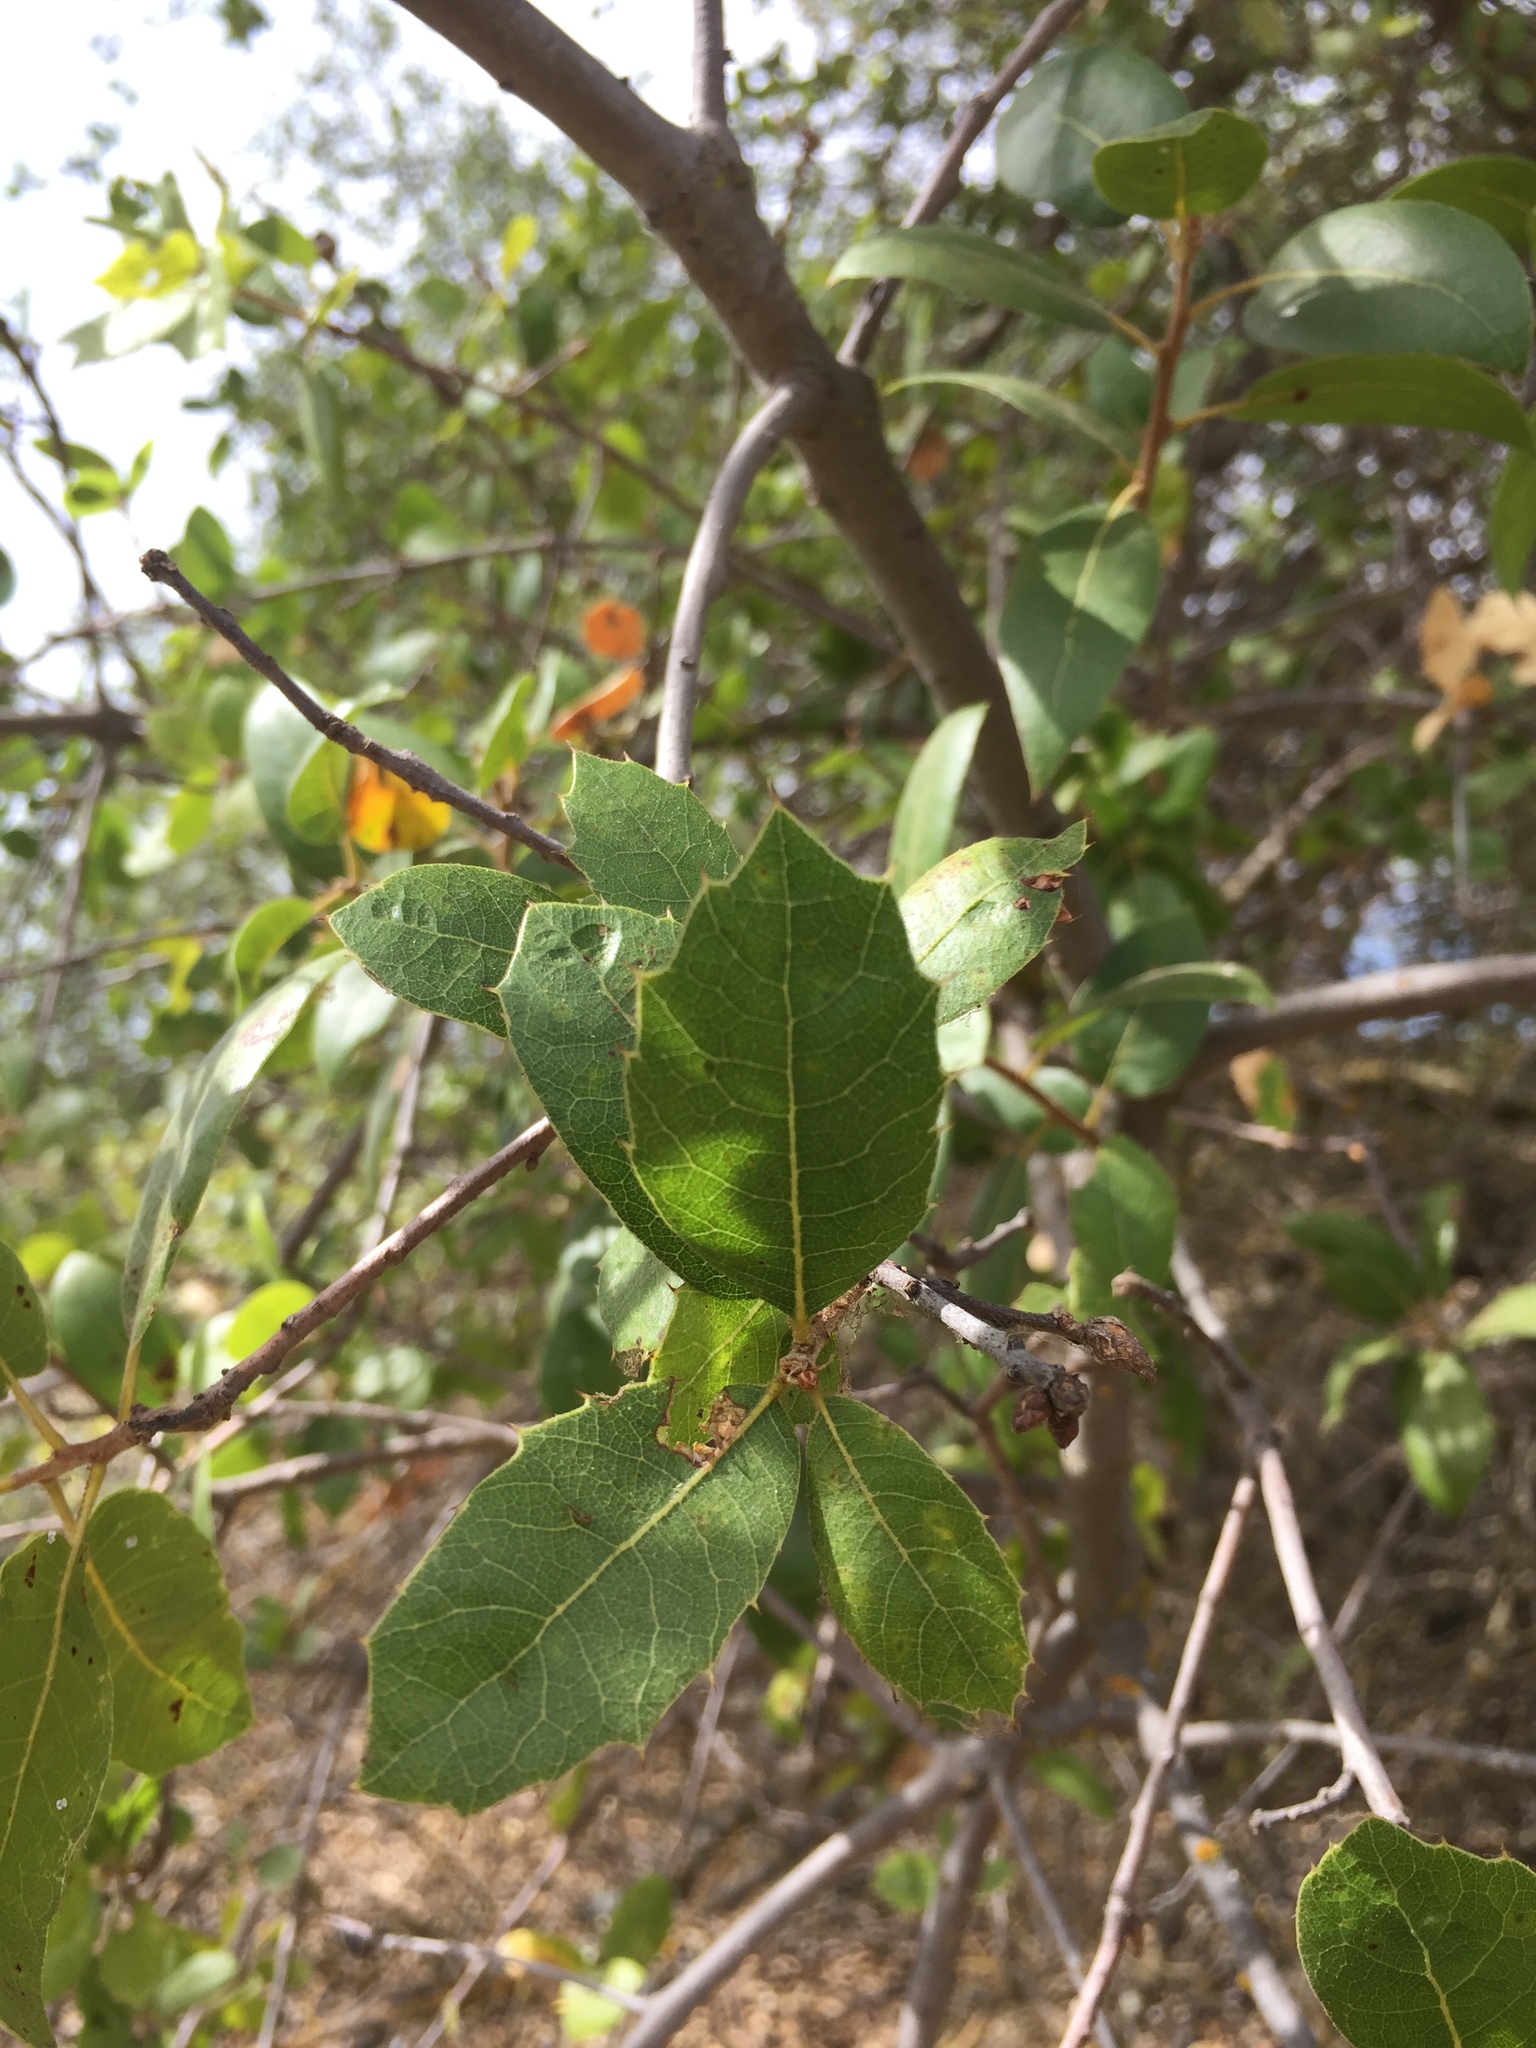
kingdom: Plantae
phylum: Tracheophyta
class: Magnoliopsida
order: Fagales
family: Fagaceae
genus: Quercus
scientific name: Quercus wislizeni
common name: Interior live oak
